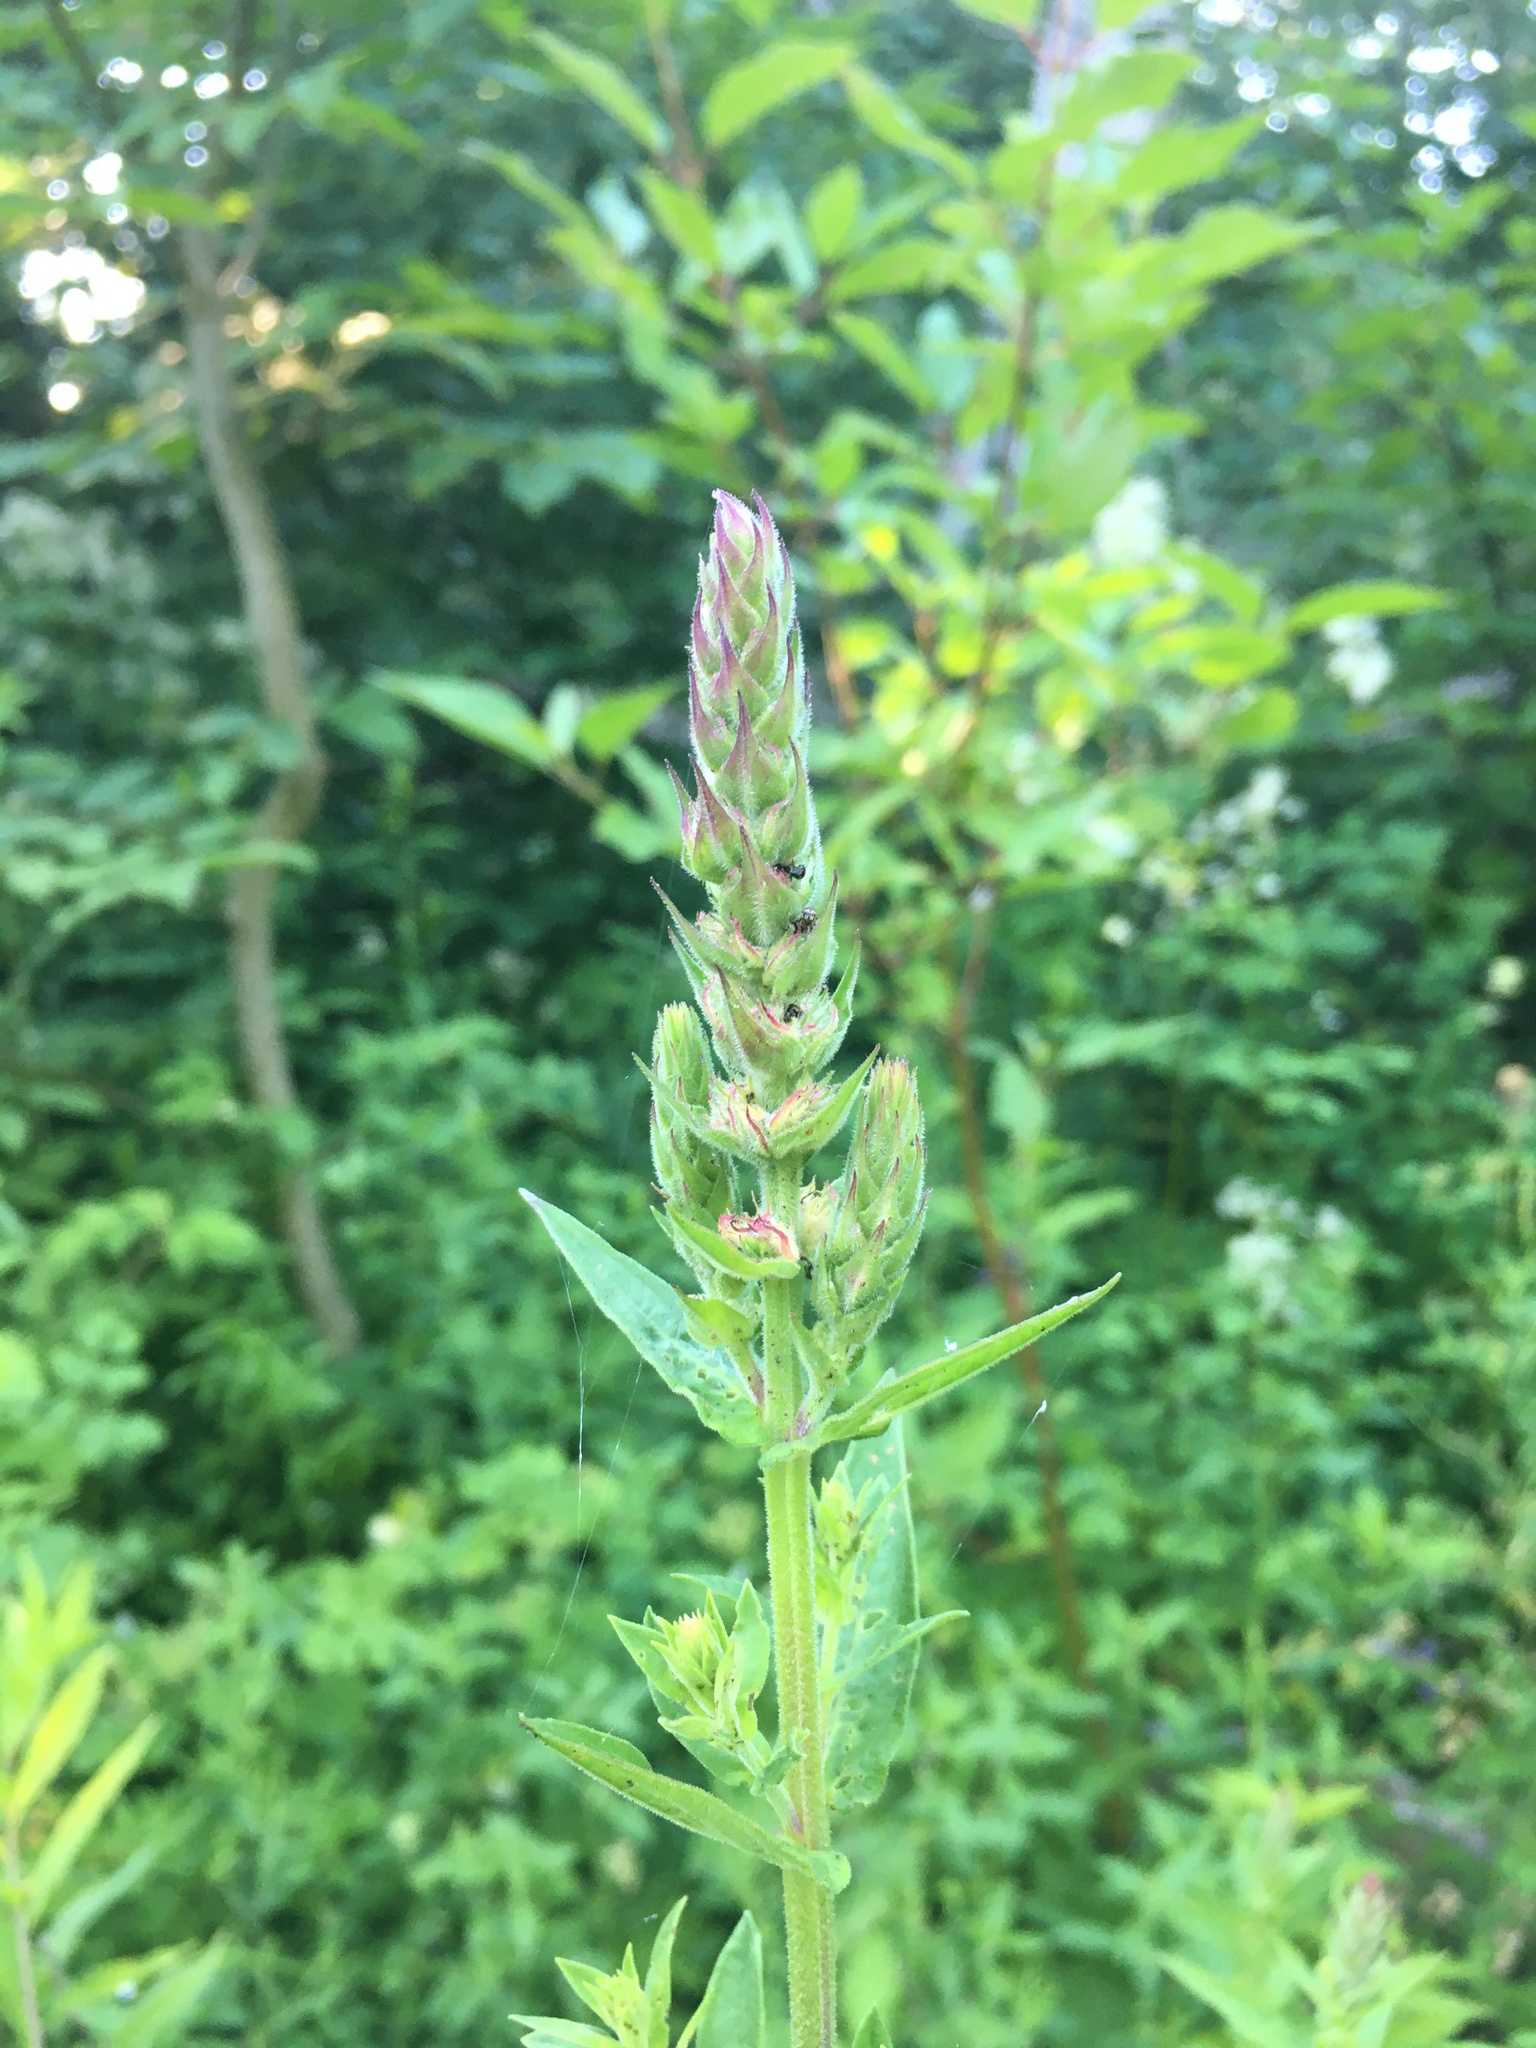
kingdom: Plantae
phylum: Tracheophyta
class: Magnoliopsida
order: Myrtales
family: Lythraceae
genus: Lythrum
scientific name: Lythrum salicaria
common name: Purple loosestrife
